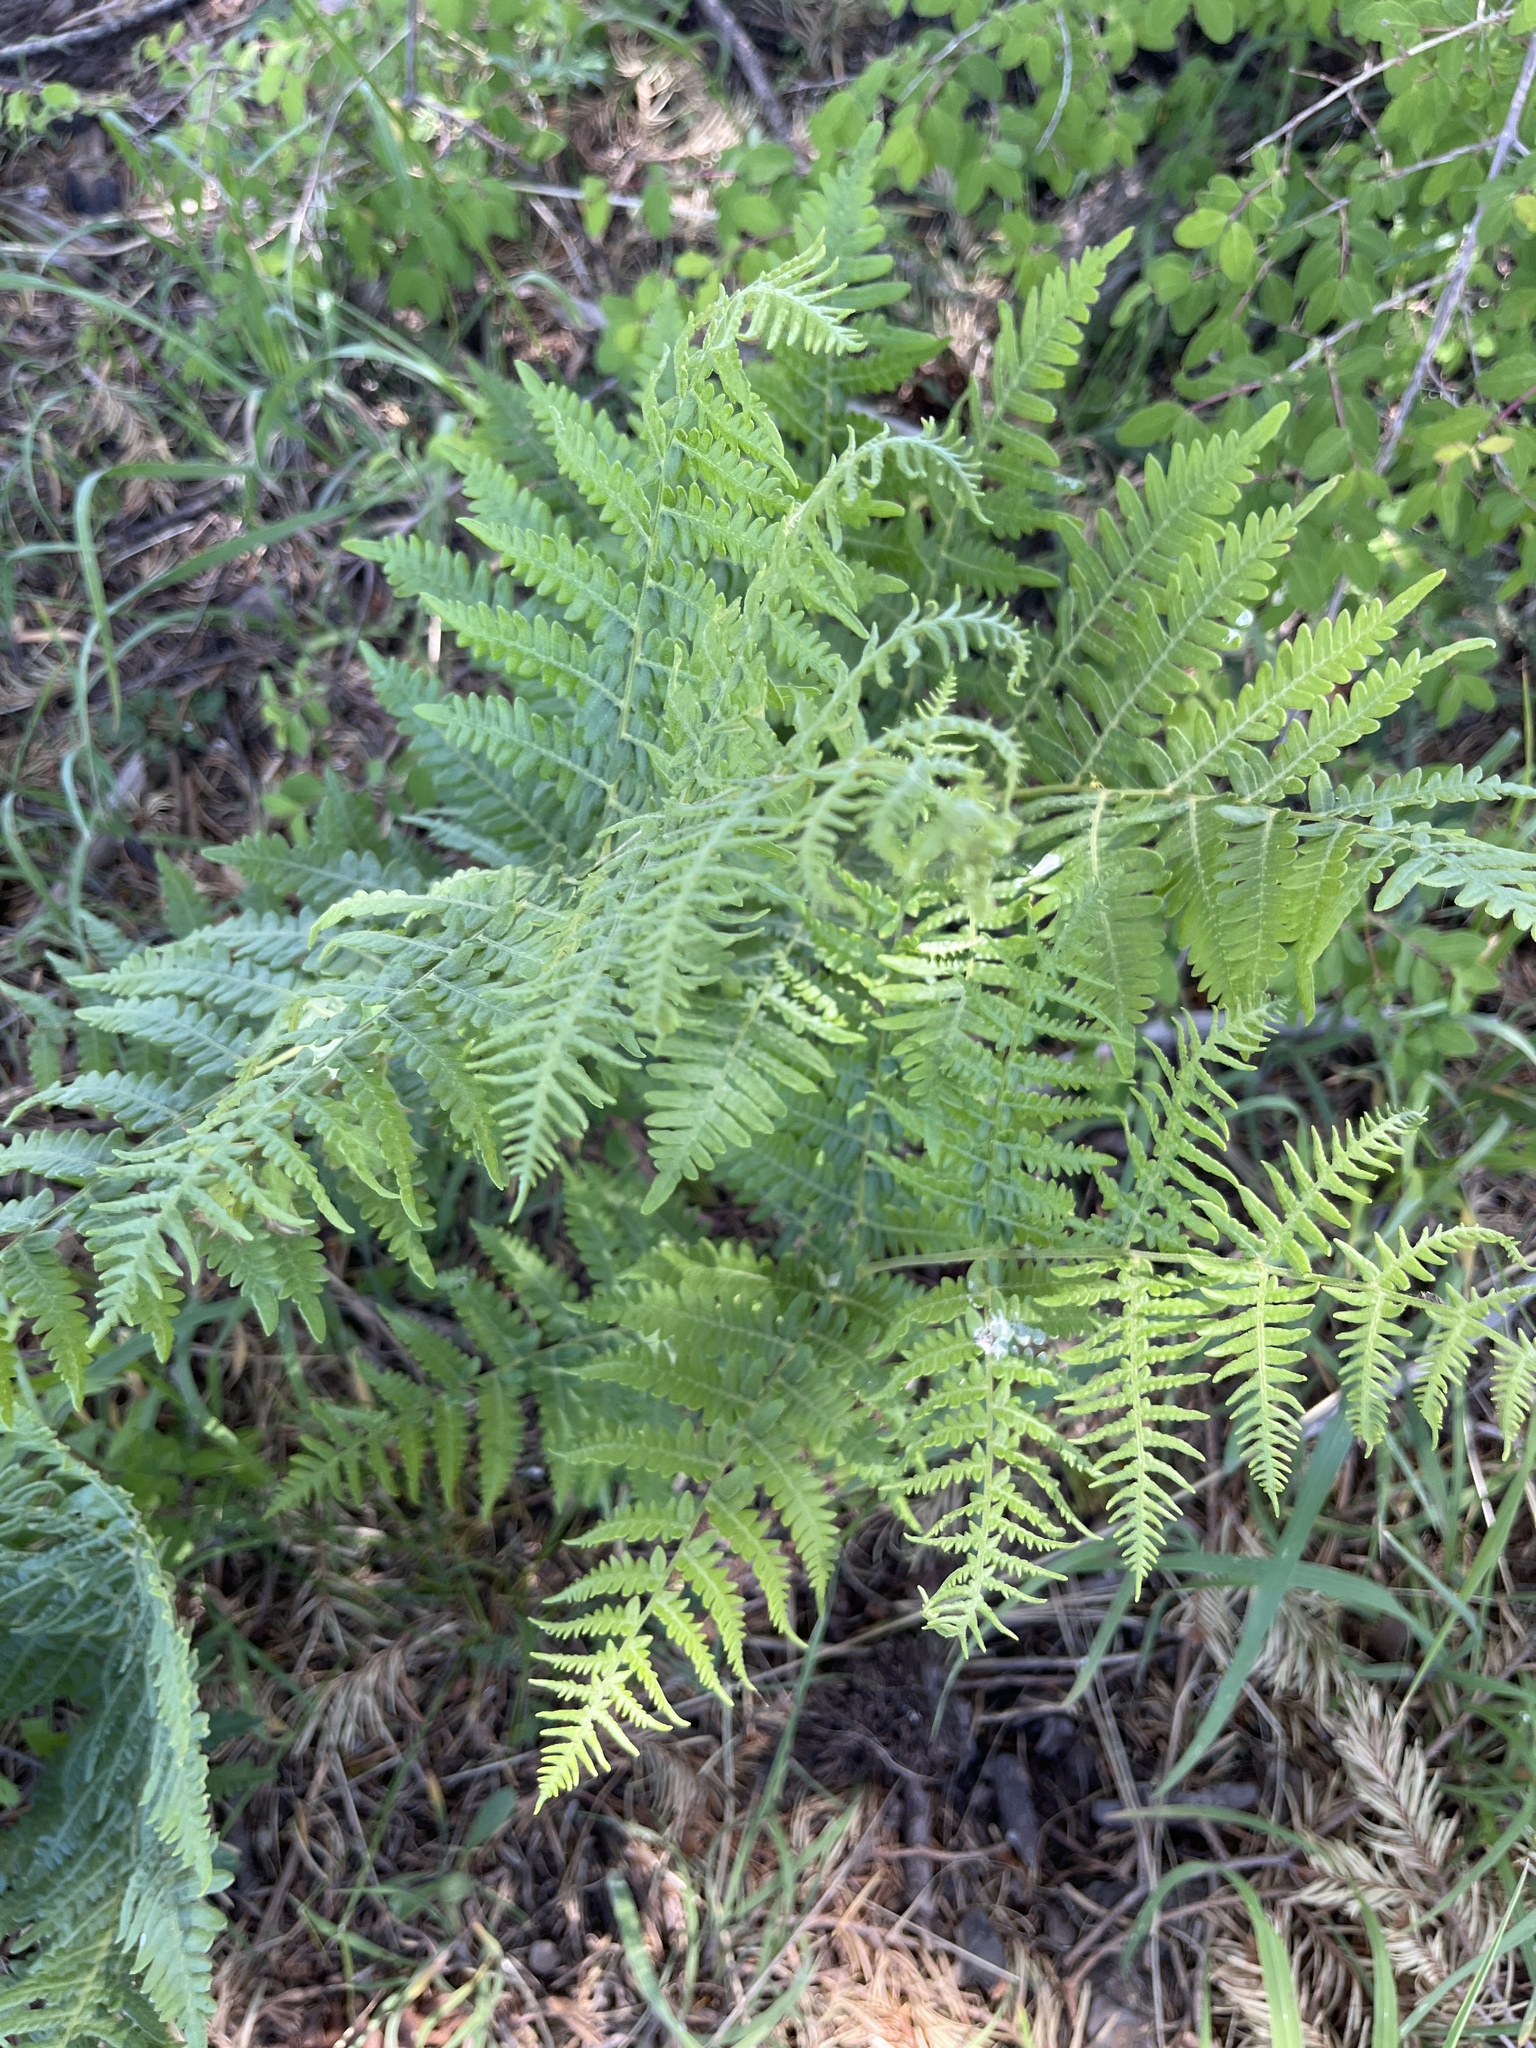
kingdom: Plantae
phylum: Tracheophyta
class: Polypodiopsida
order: Polypodiales
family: Dennstaedtiaceae
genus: Pteridium
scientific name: Pteridium aquilinum
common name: Bracken
